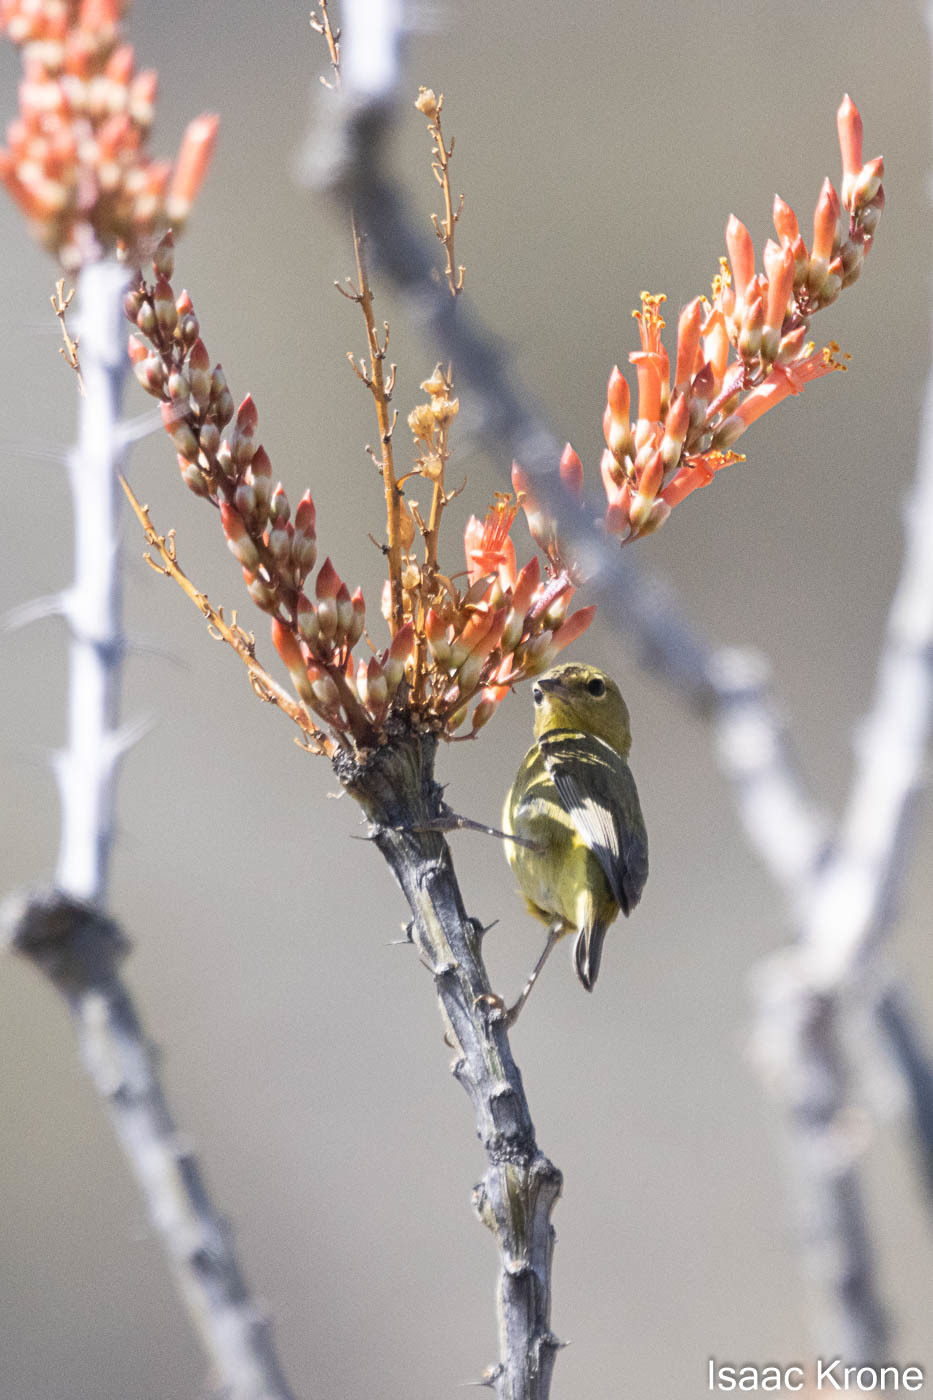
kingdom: Animalia
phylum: Chordata
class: Aves
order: Passeriformes
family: Parulidae
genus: Leiothlypis
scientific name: Leiothlypis celata
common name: Orange-crowned warbler
